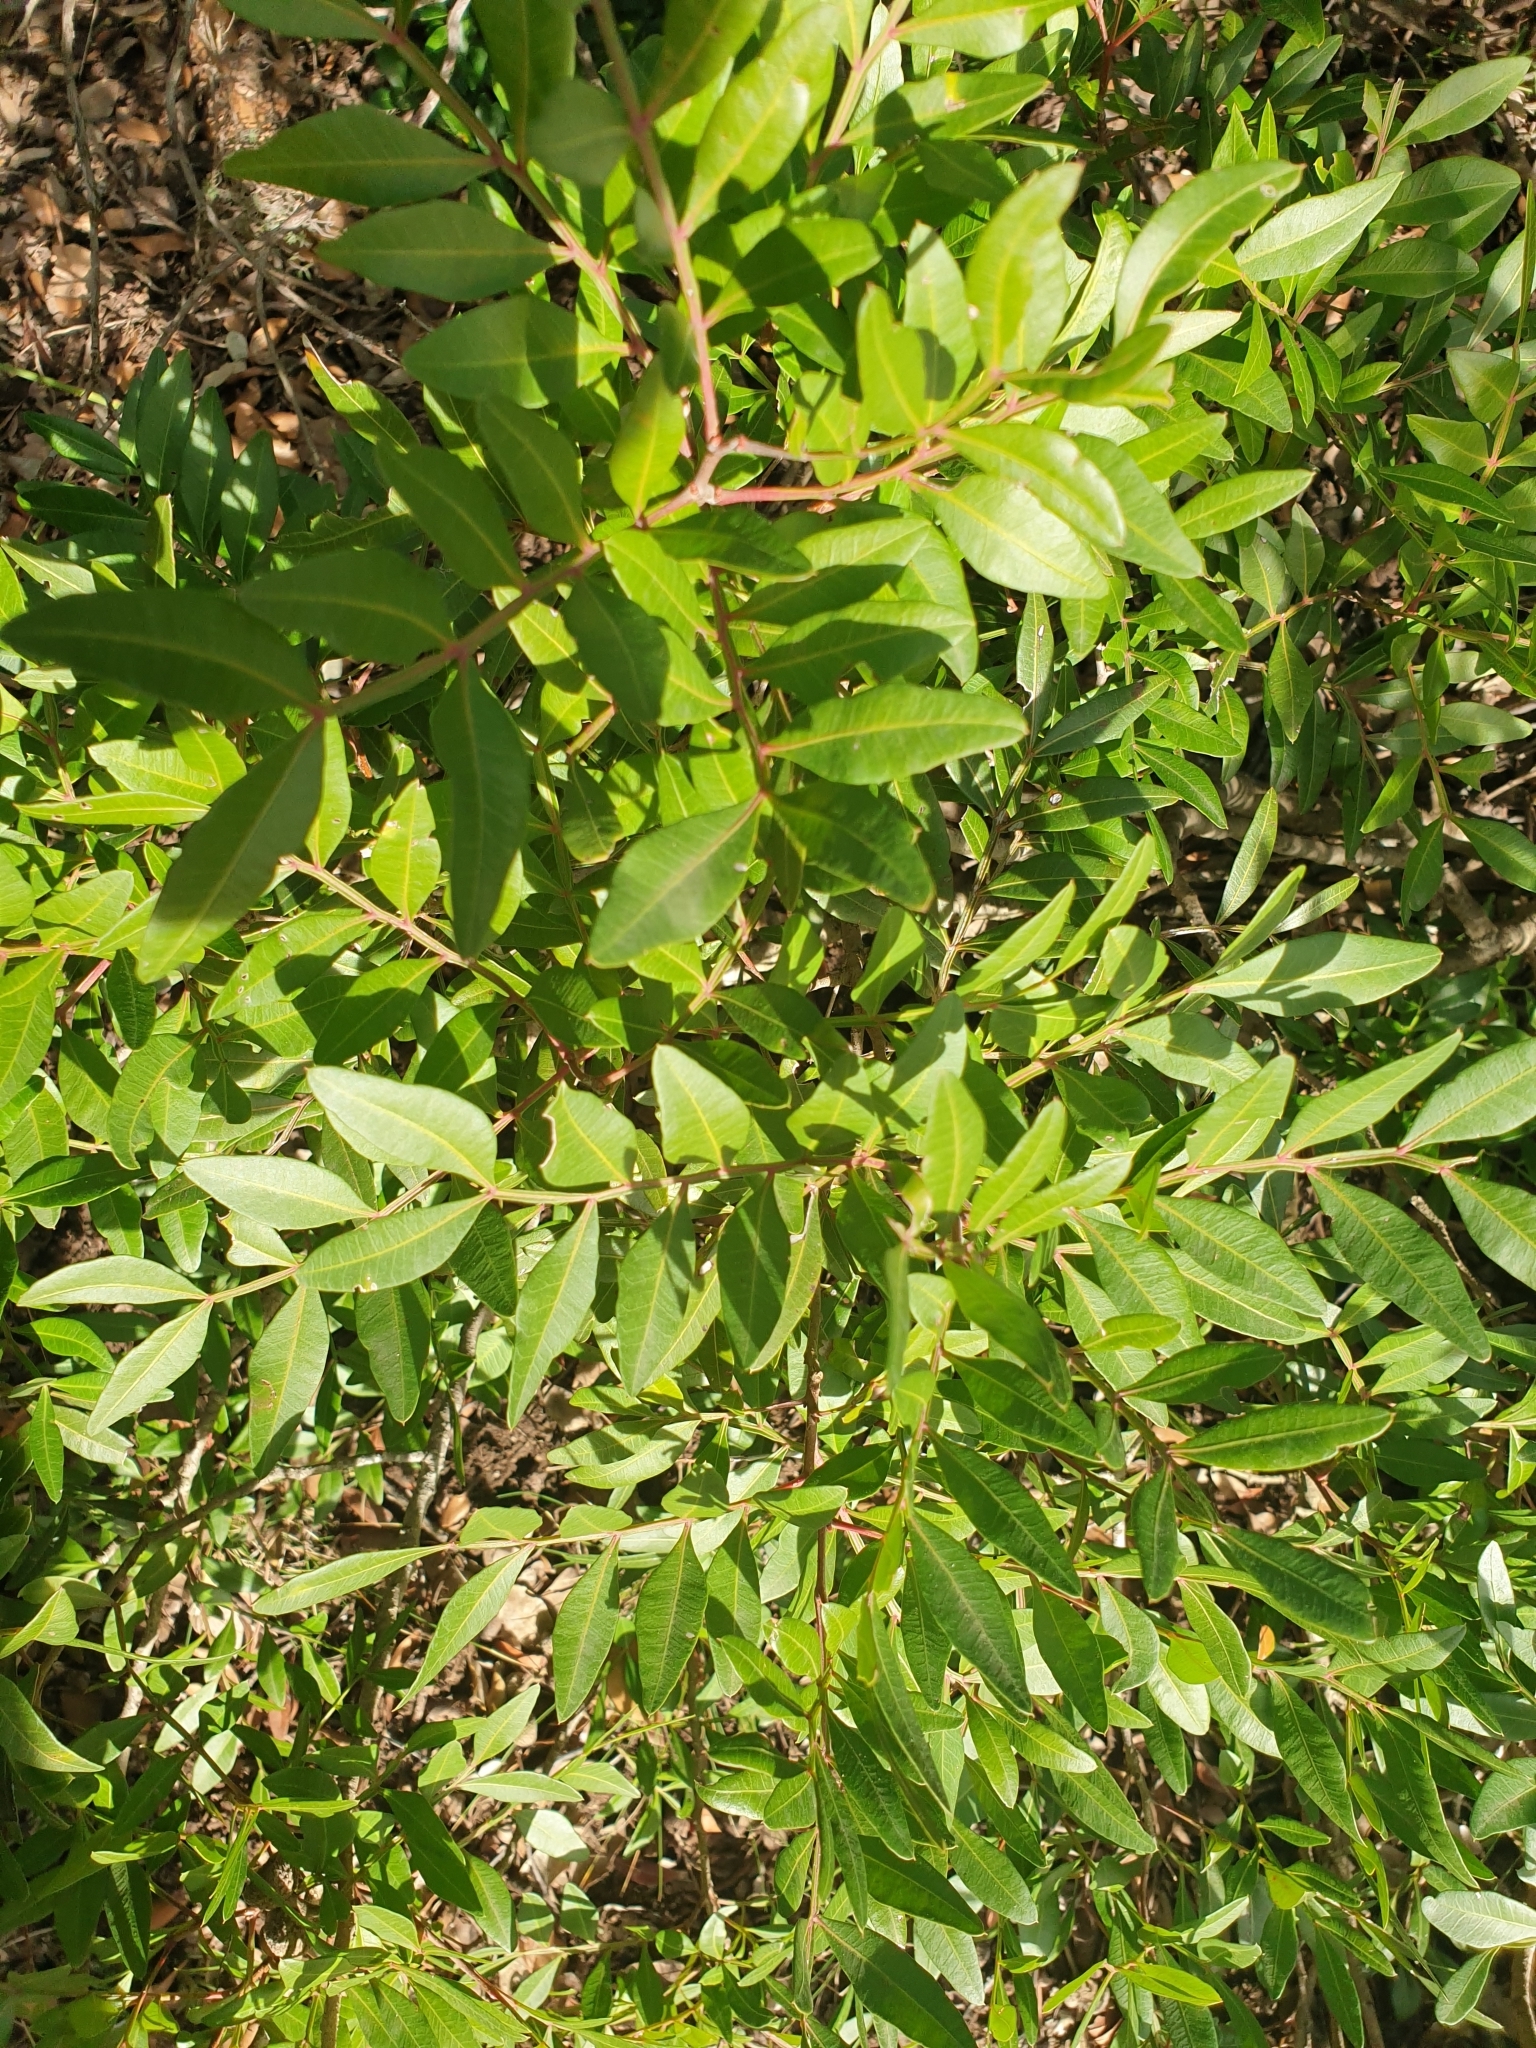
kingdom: Plantae
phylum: Tracheophyta
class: Magnoliopsida
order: Sapindales
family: Anacardiaceae
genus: Pistacia
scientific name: Pistacia lentiscus
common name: Lentisk
